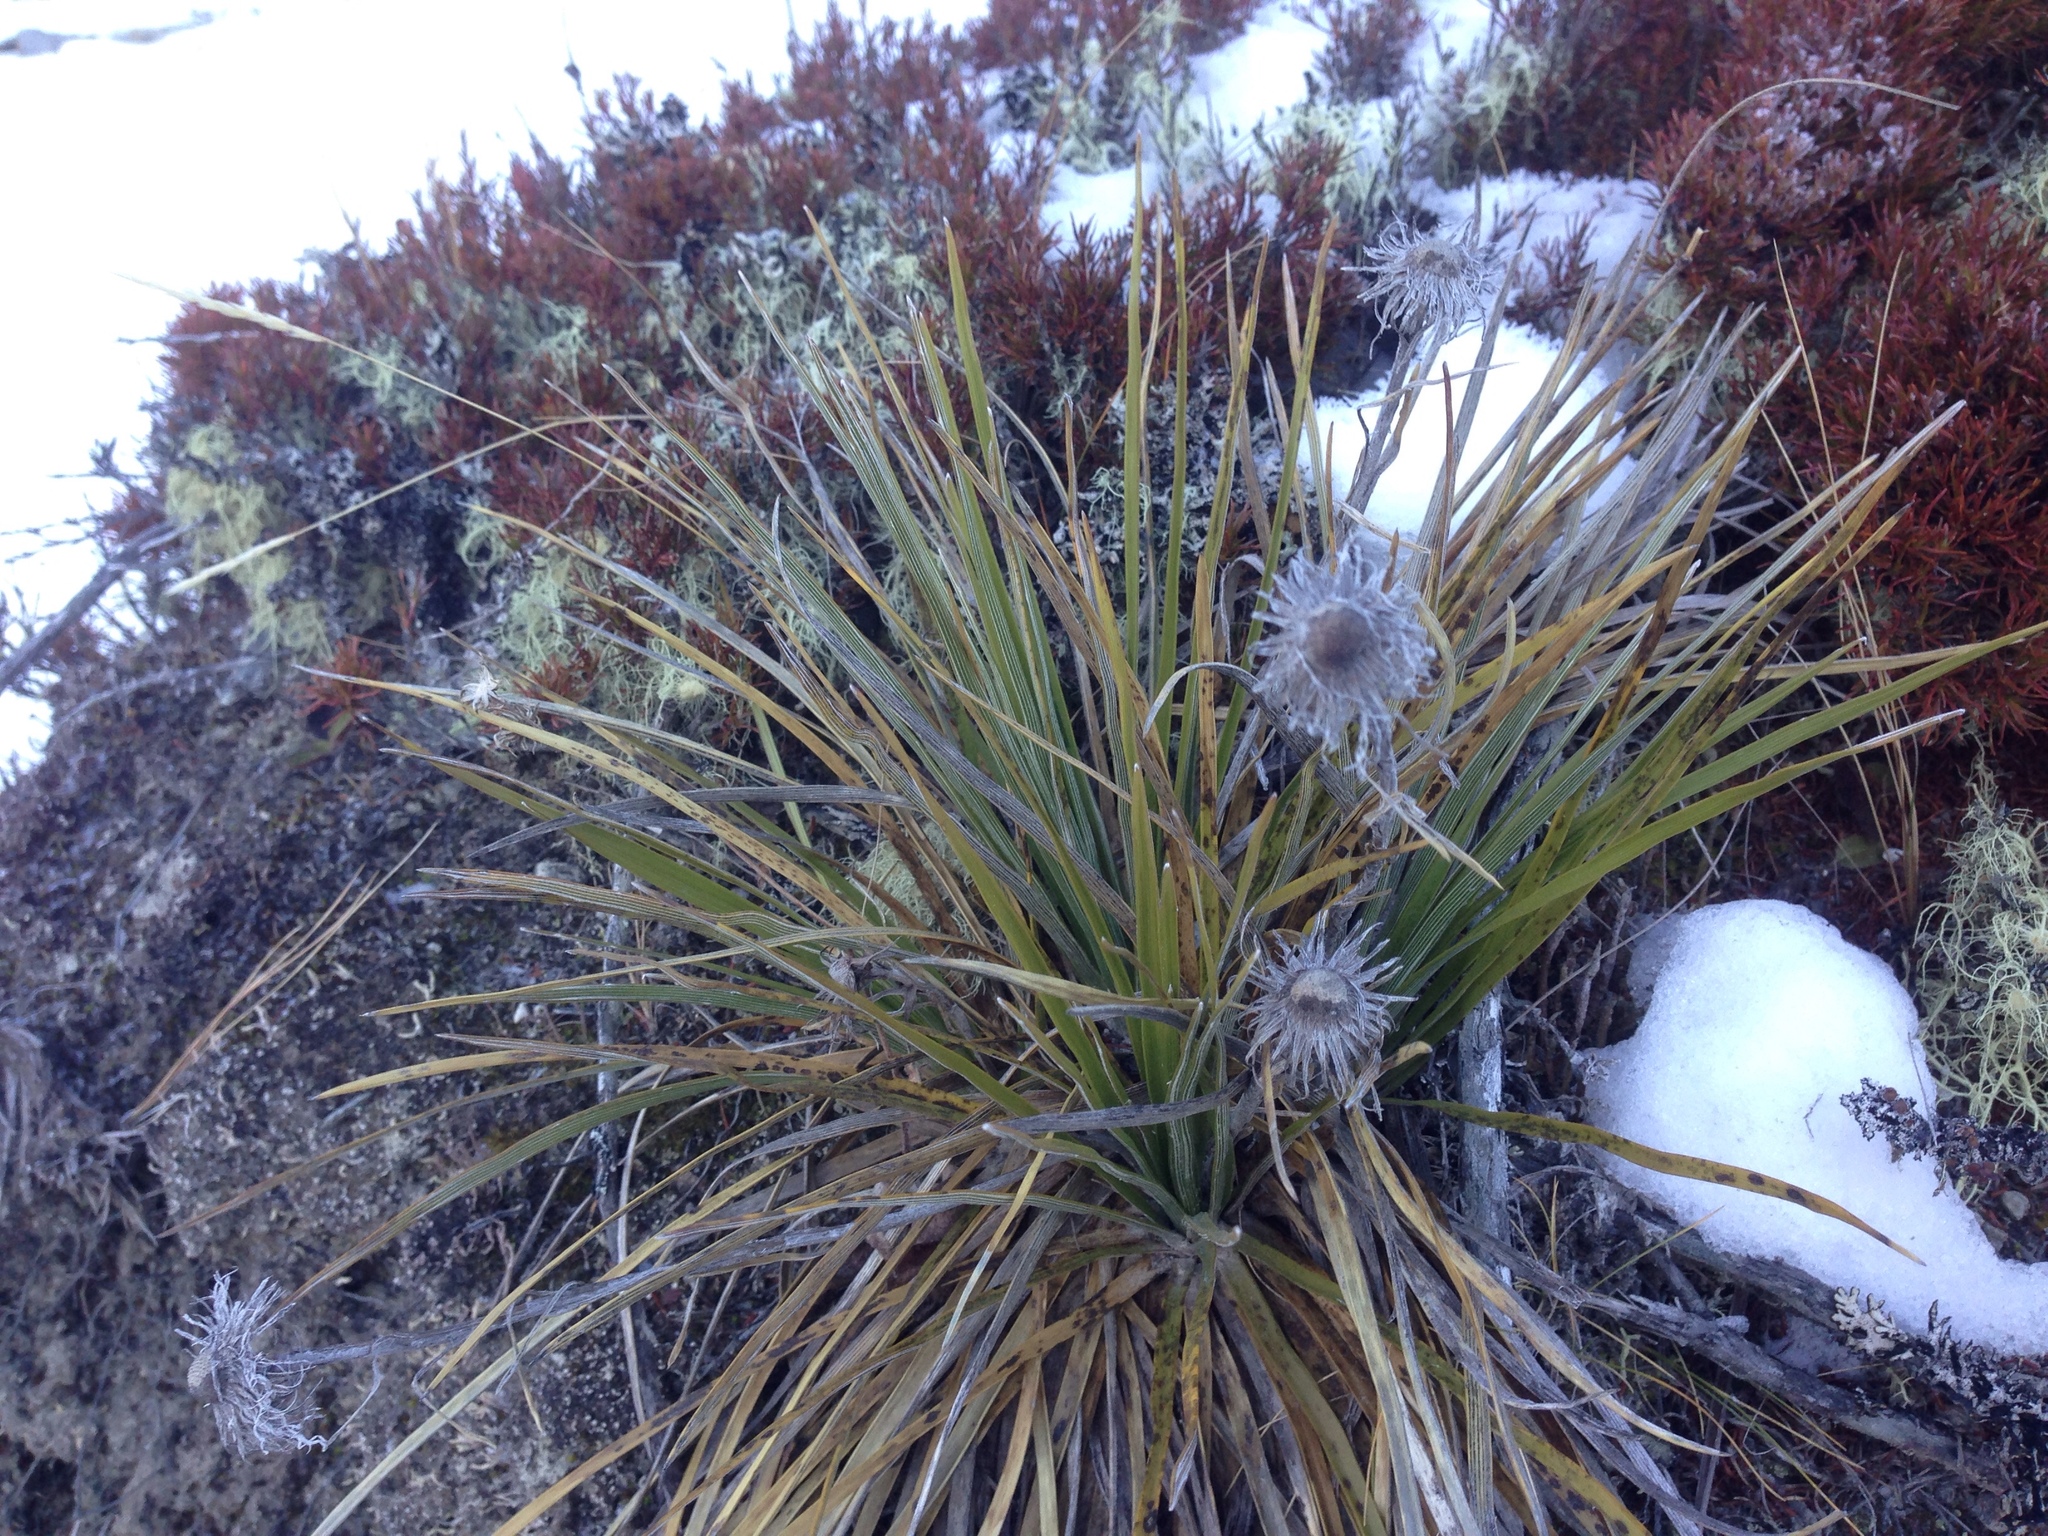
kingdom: Plantae
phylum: Tracheophyta
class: Magnoliopsida
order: Asterales
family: Asteraceae
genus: Celmisia
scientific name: Celmisia lyallii
